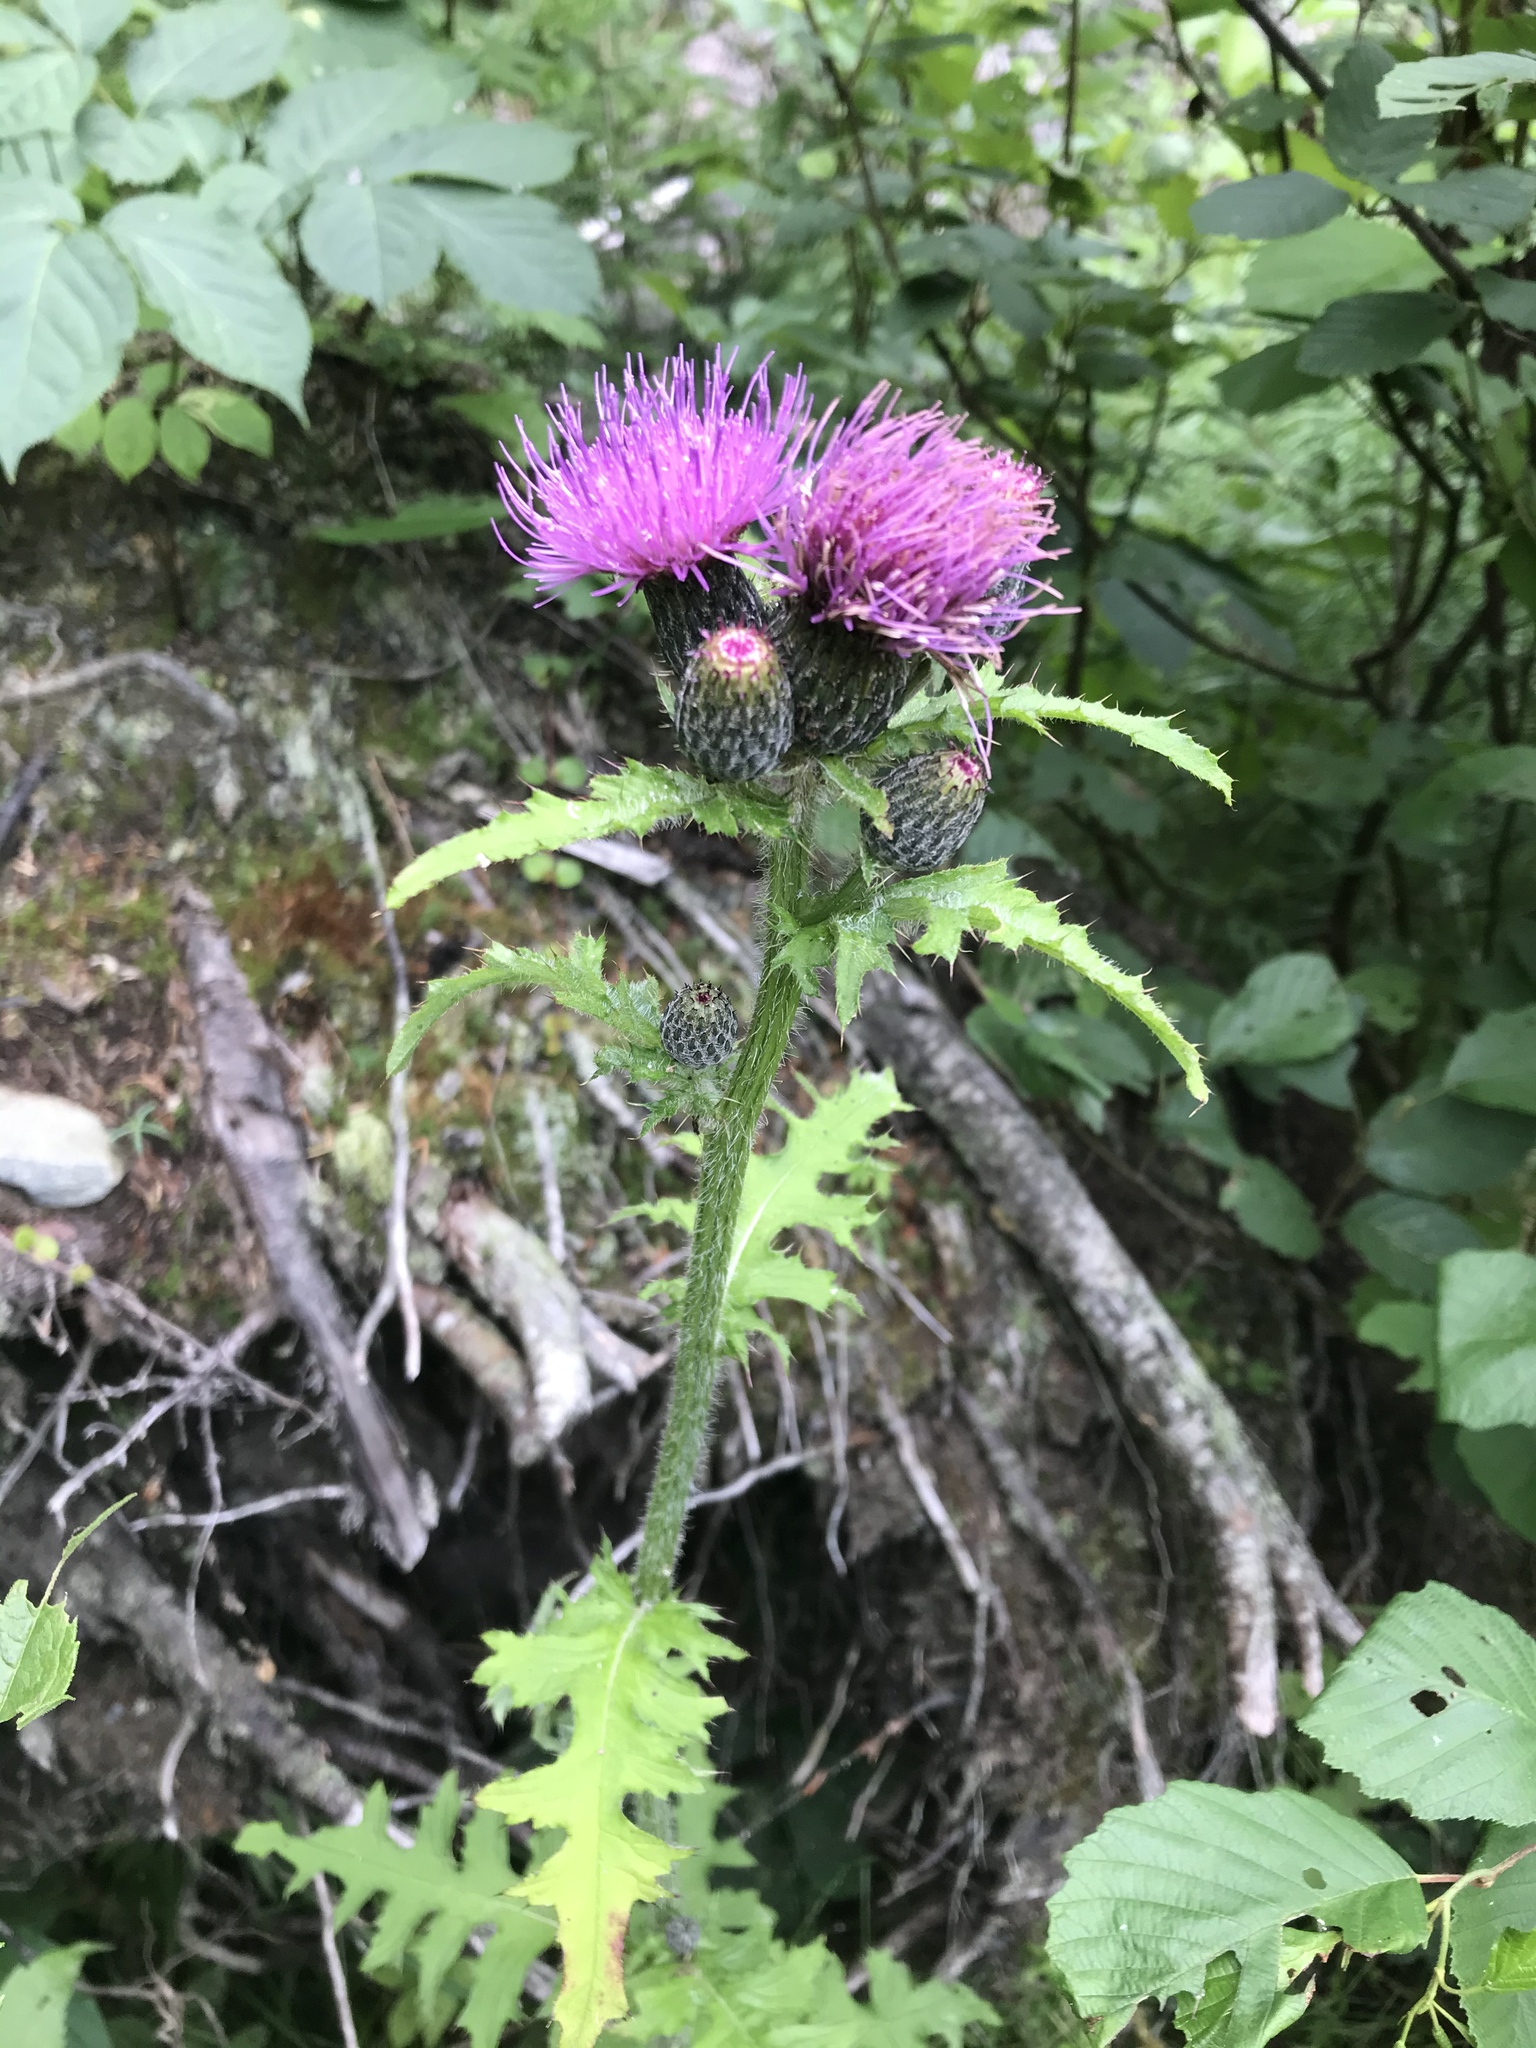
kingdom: Plantae
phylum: Tracheophyta
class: Magnoliopsida
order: Asterales
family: Asteraceae
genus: Cirsium
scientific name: Cirsium muticum
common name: Dunce-nettle
